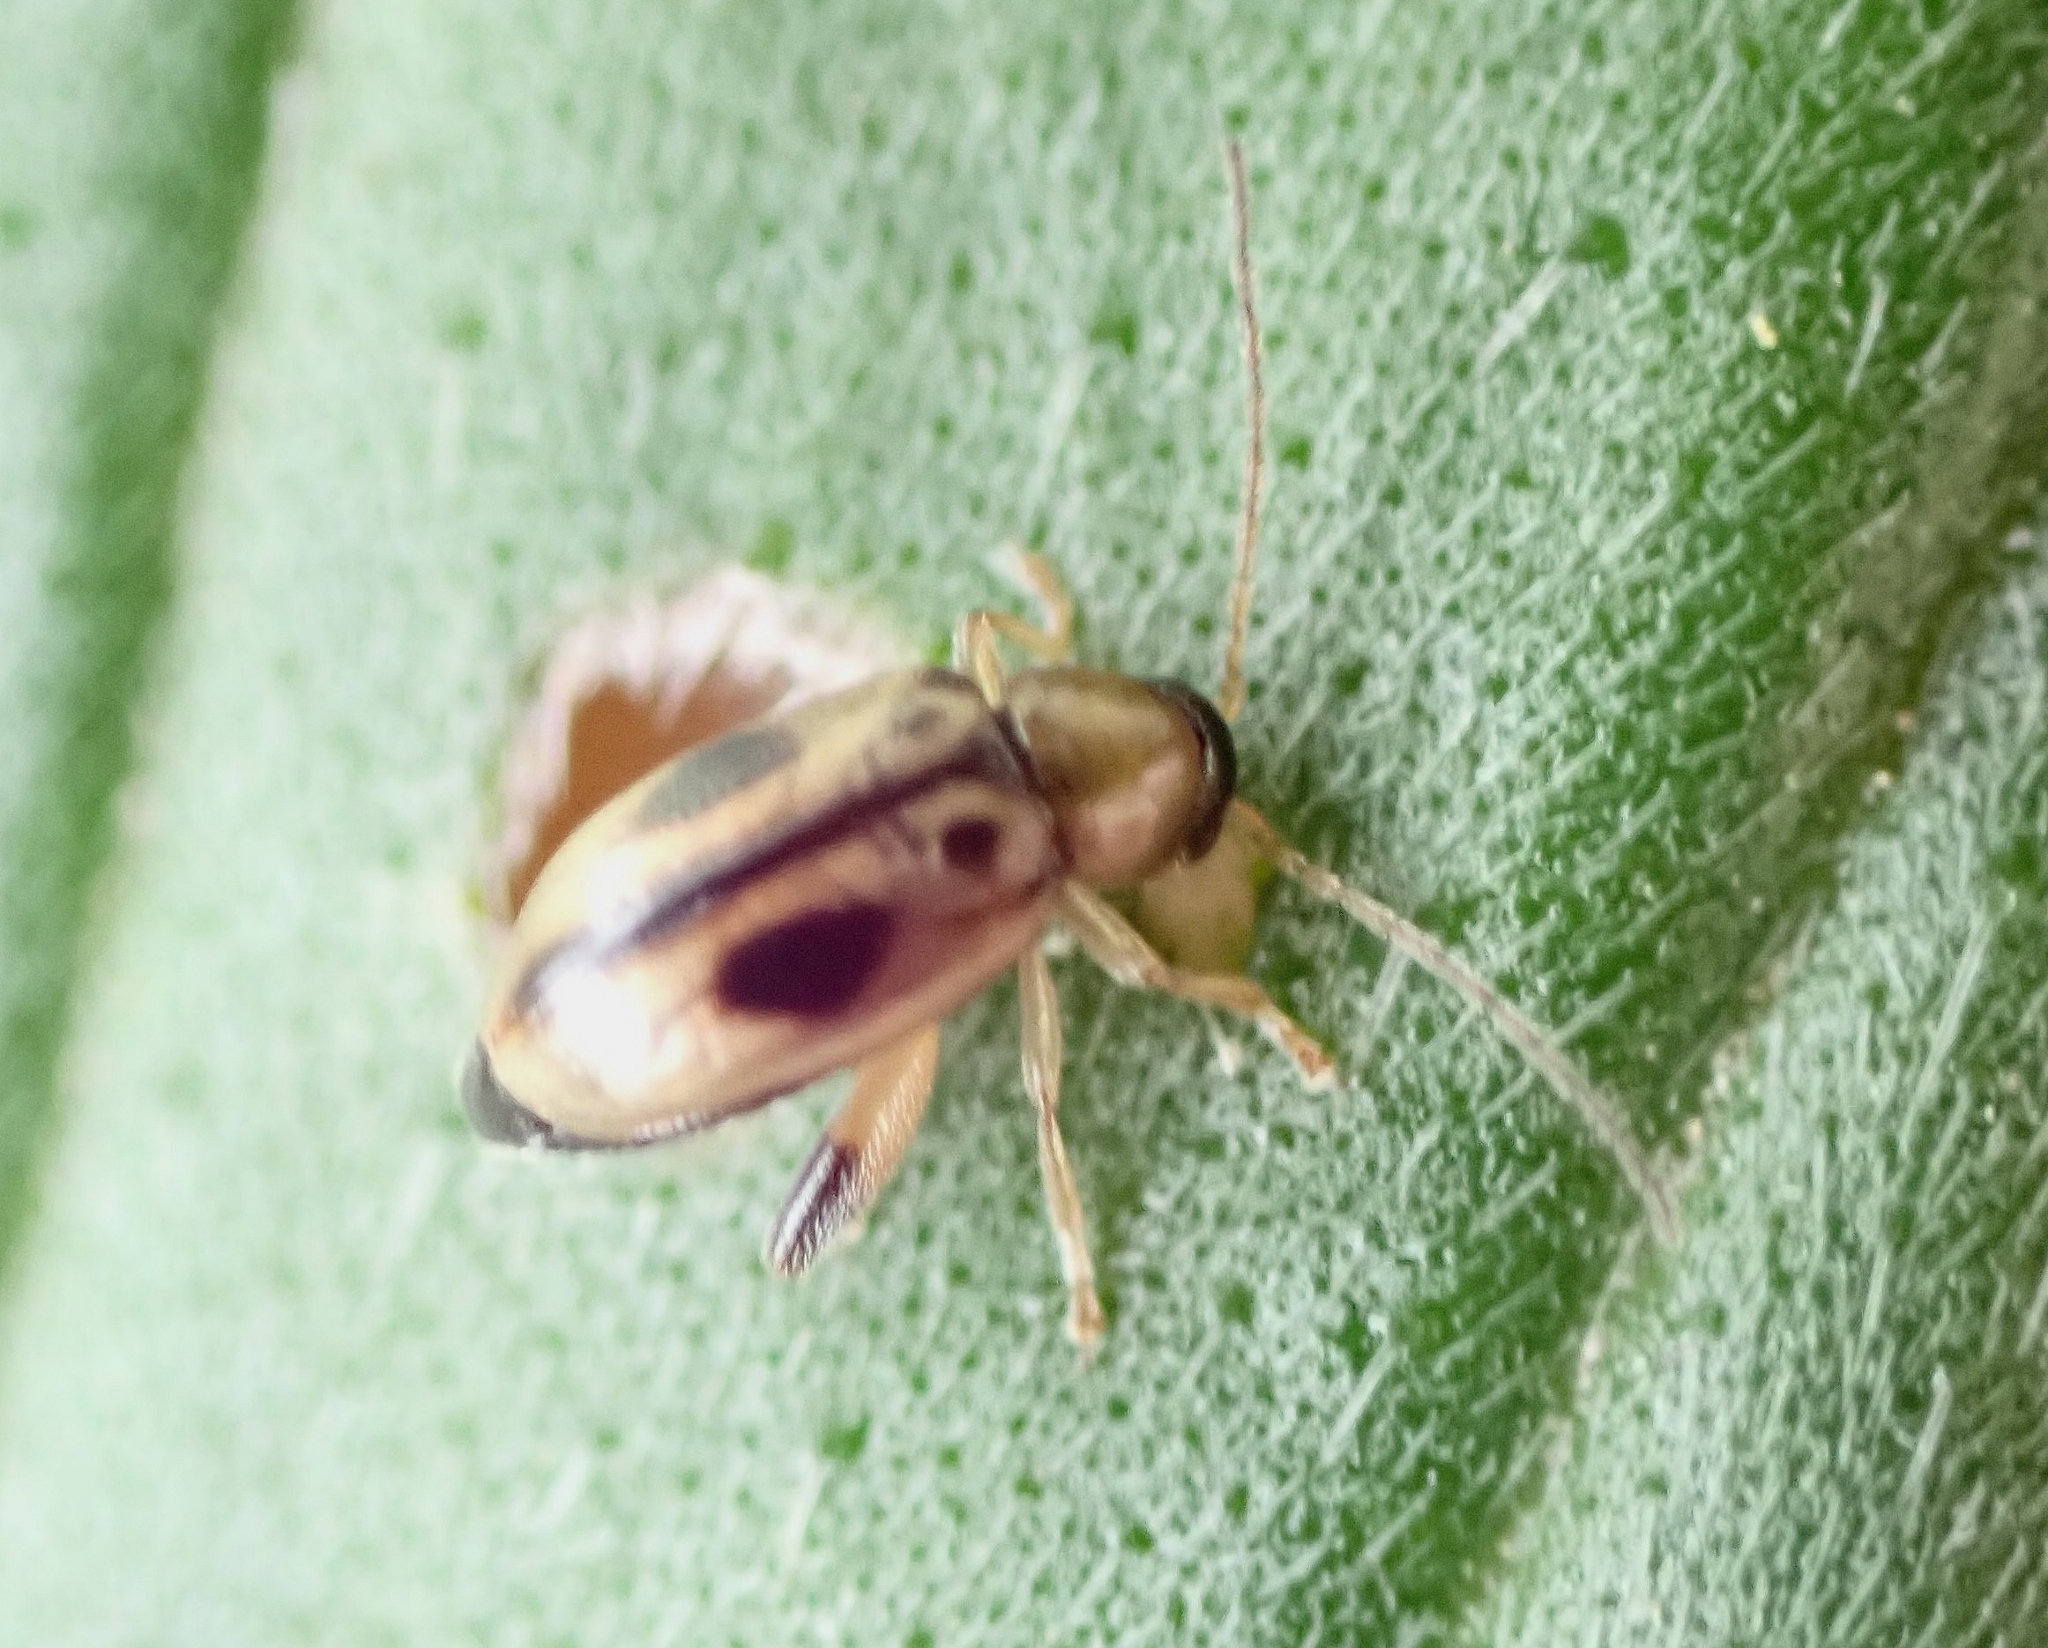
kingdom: Animalia
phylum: Arthropoda
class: Insecta
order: Coleoptera
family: Chrysomelidae
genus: Longitarsus
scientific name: Longitarsus persimilis
